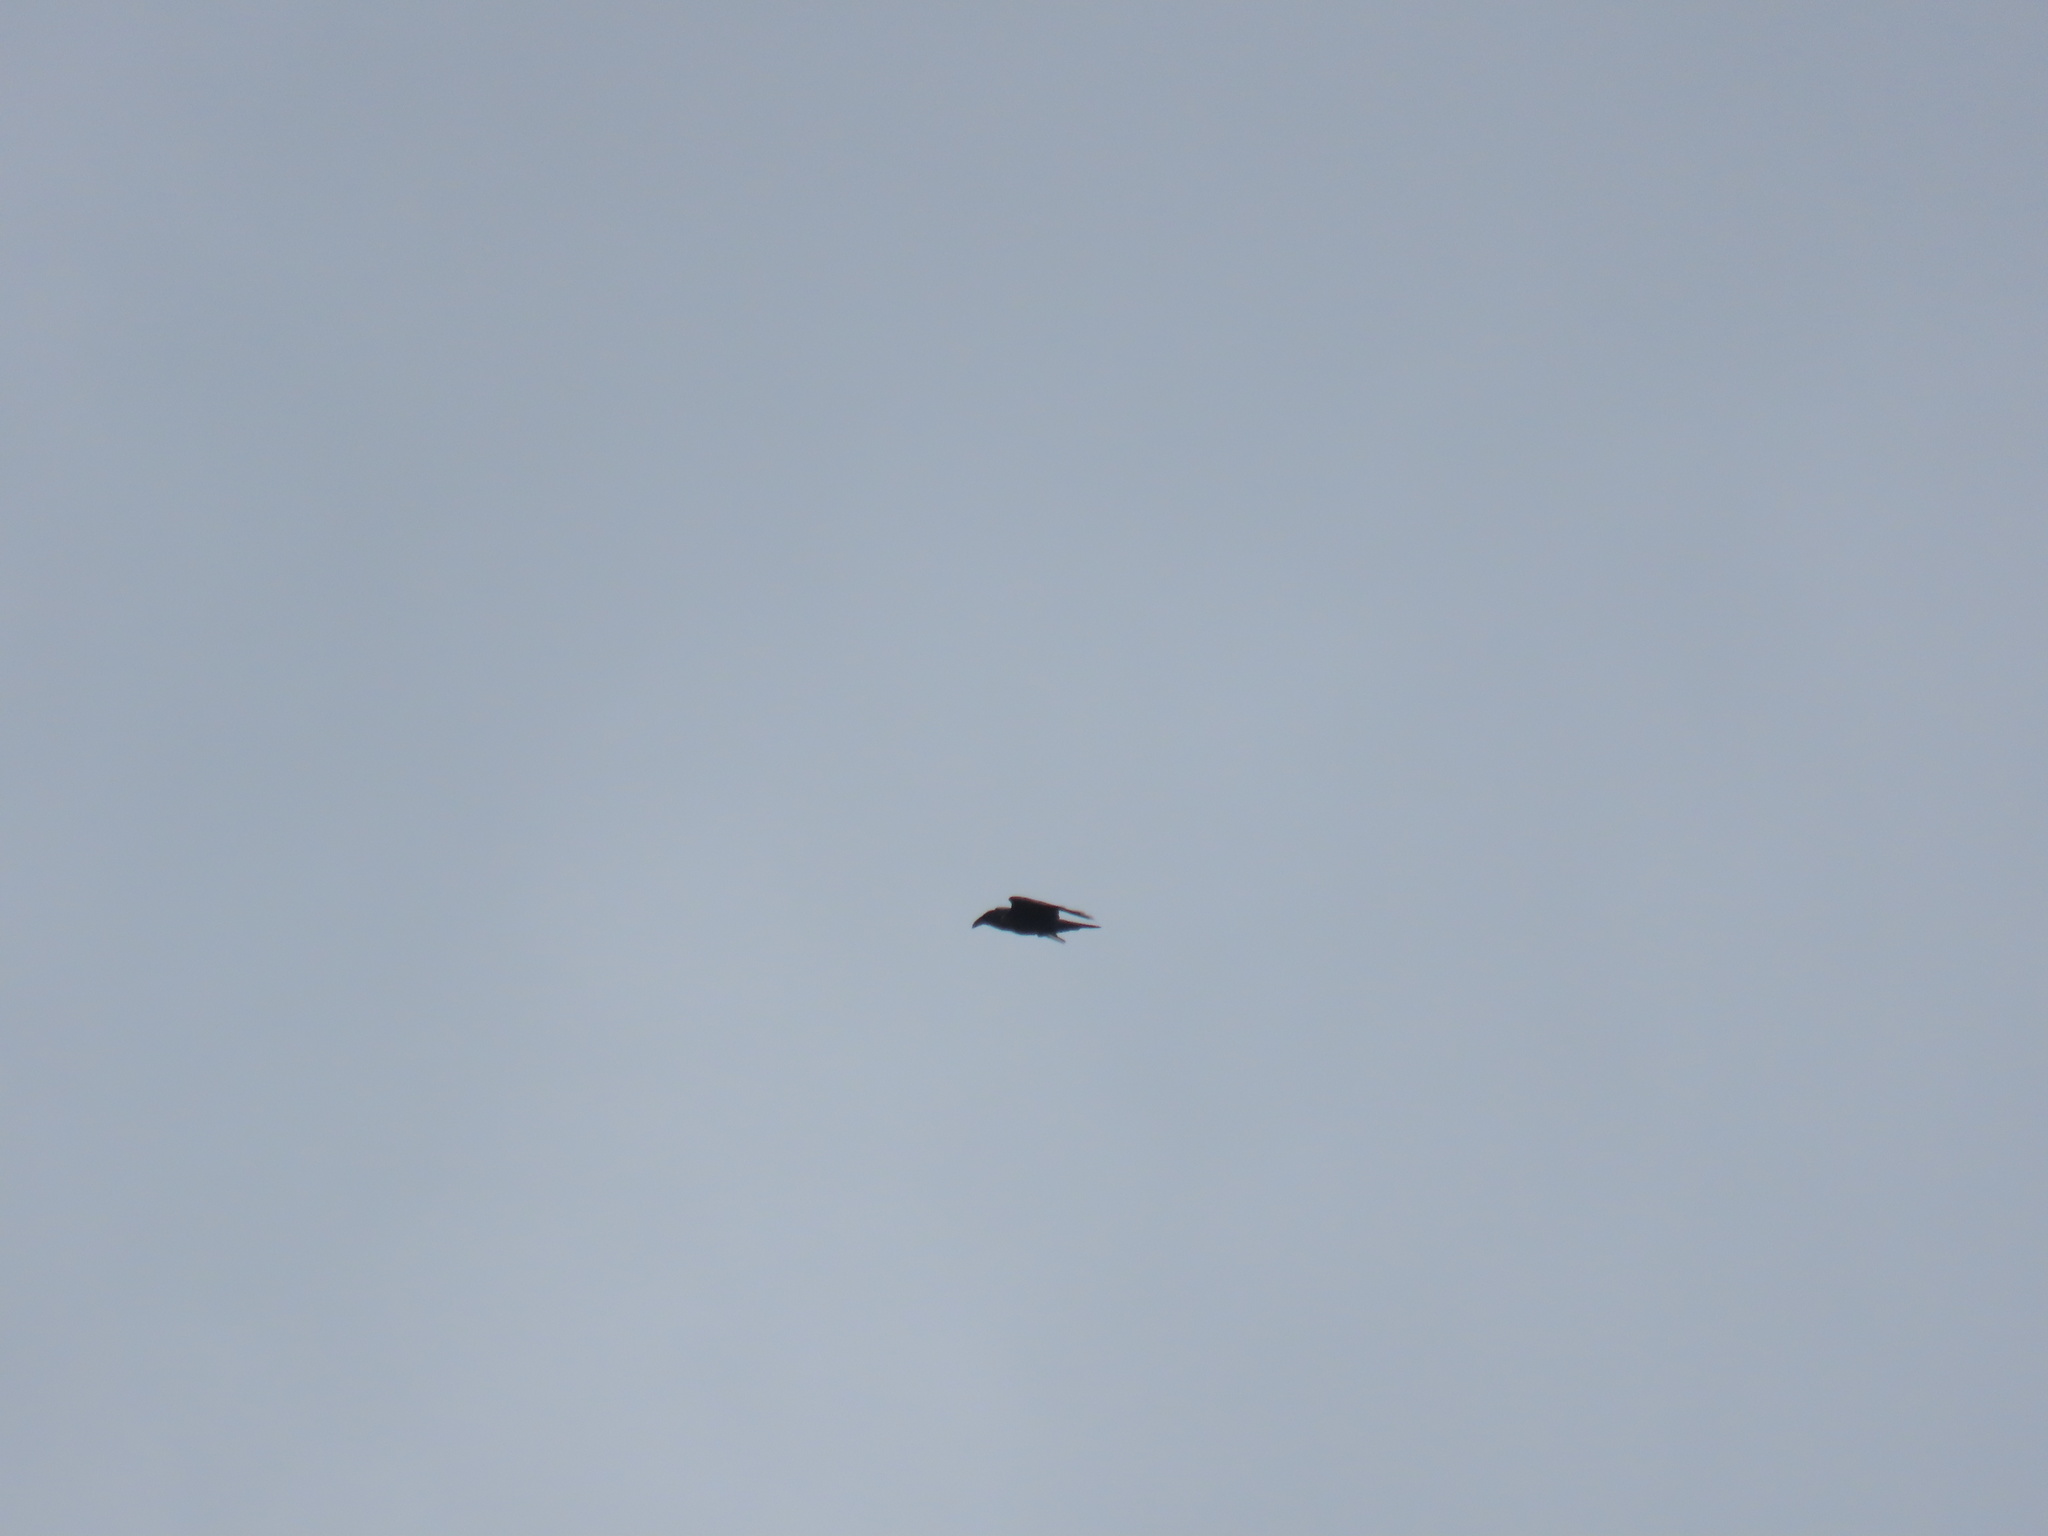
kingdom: Animalia
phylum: Chordata
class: Aves
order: Passeriformes
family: Corvidae
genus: Corvus
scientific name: Corvus corax
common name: Common raven
